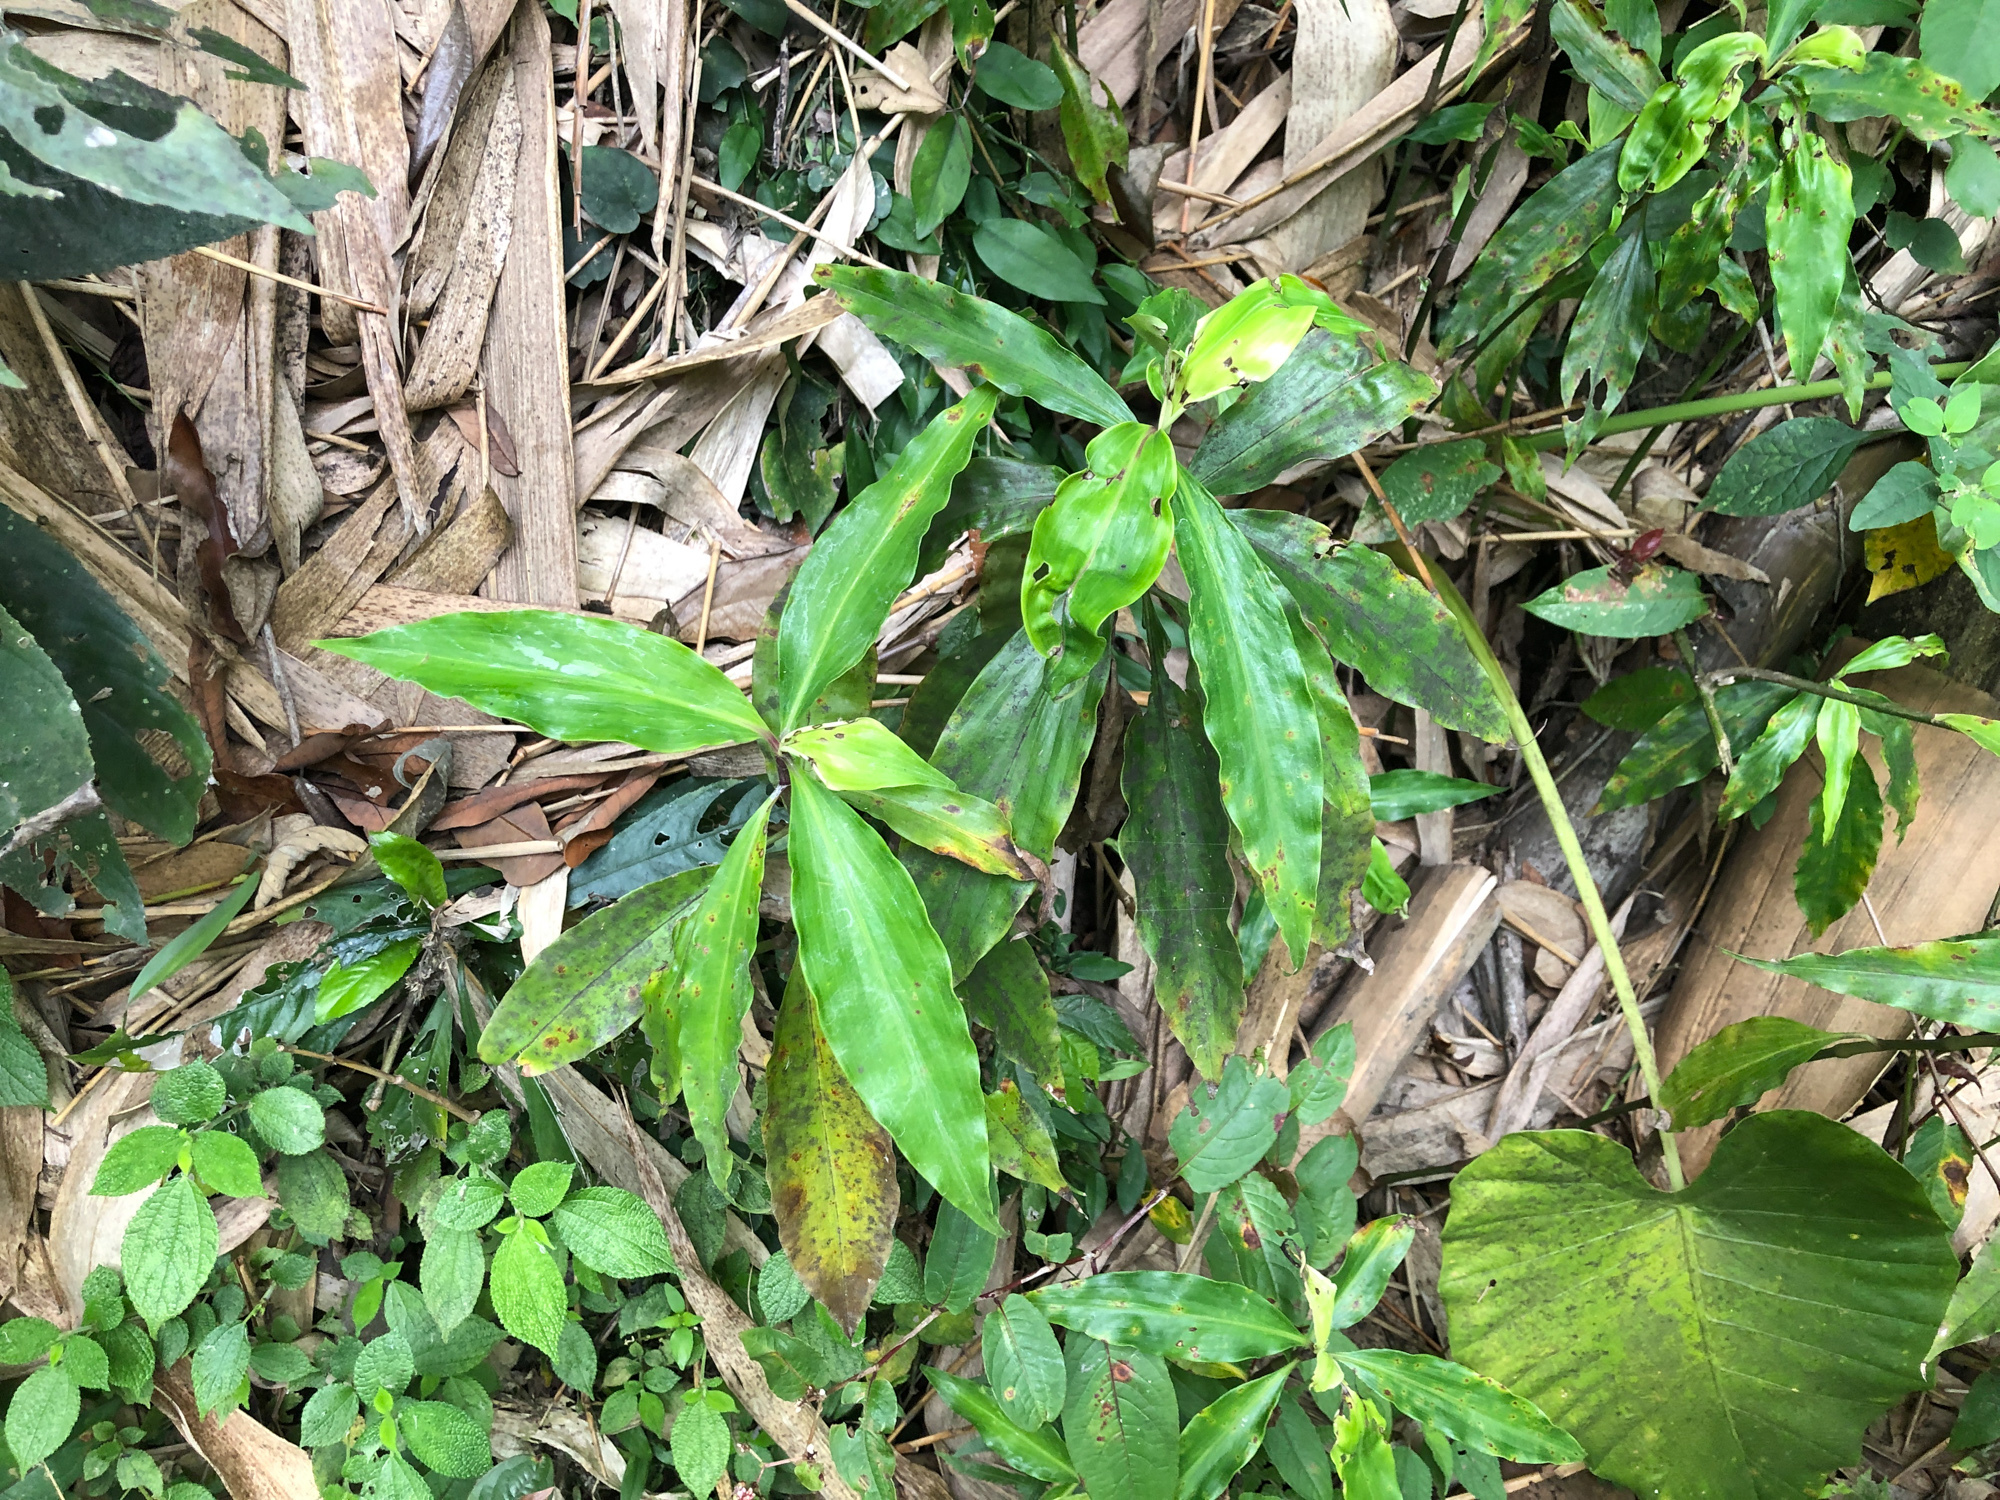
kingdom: Plantae
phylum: Tracheophyta
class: Liliopsida
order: Commelinales
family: Commelinaceae
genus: Pollia
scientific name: Pollia miranda
